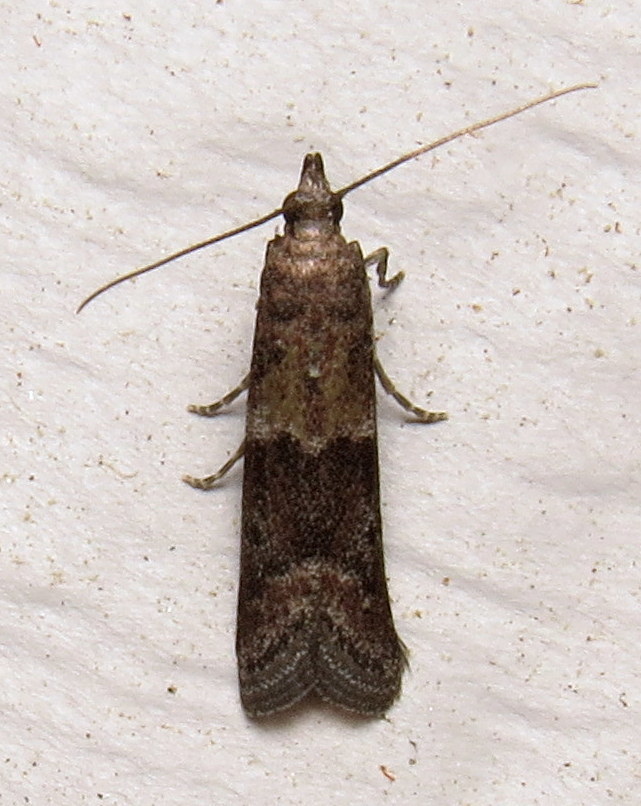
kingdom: Animalia
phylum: Arthropoda
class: Insecta
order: Lepidoptera
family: Pyralidae
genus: Ephestiodes
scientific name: Ephestiodes infimella
